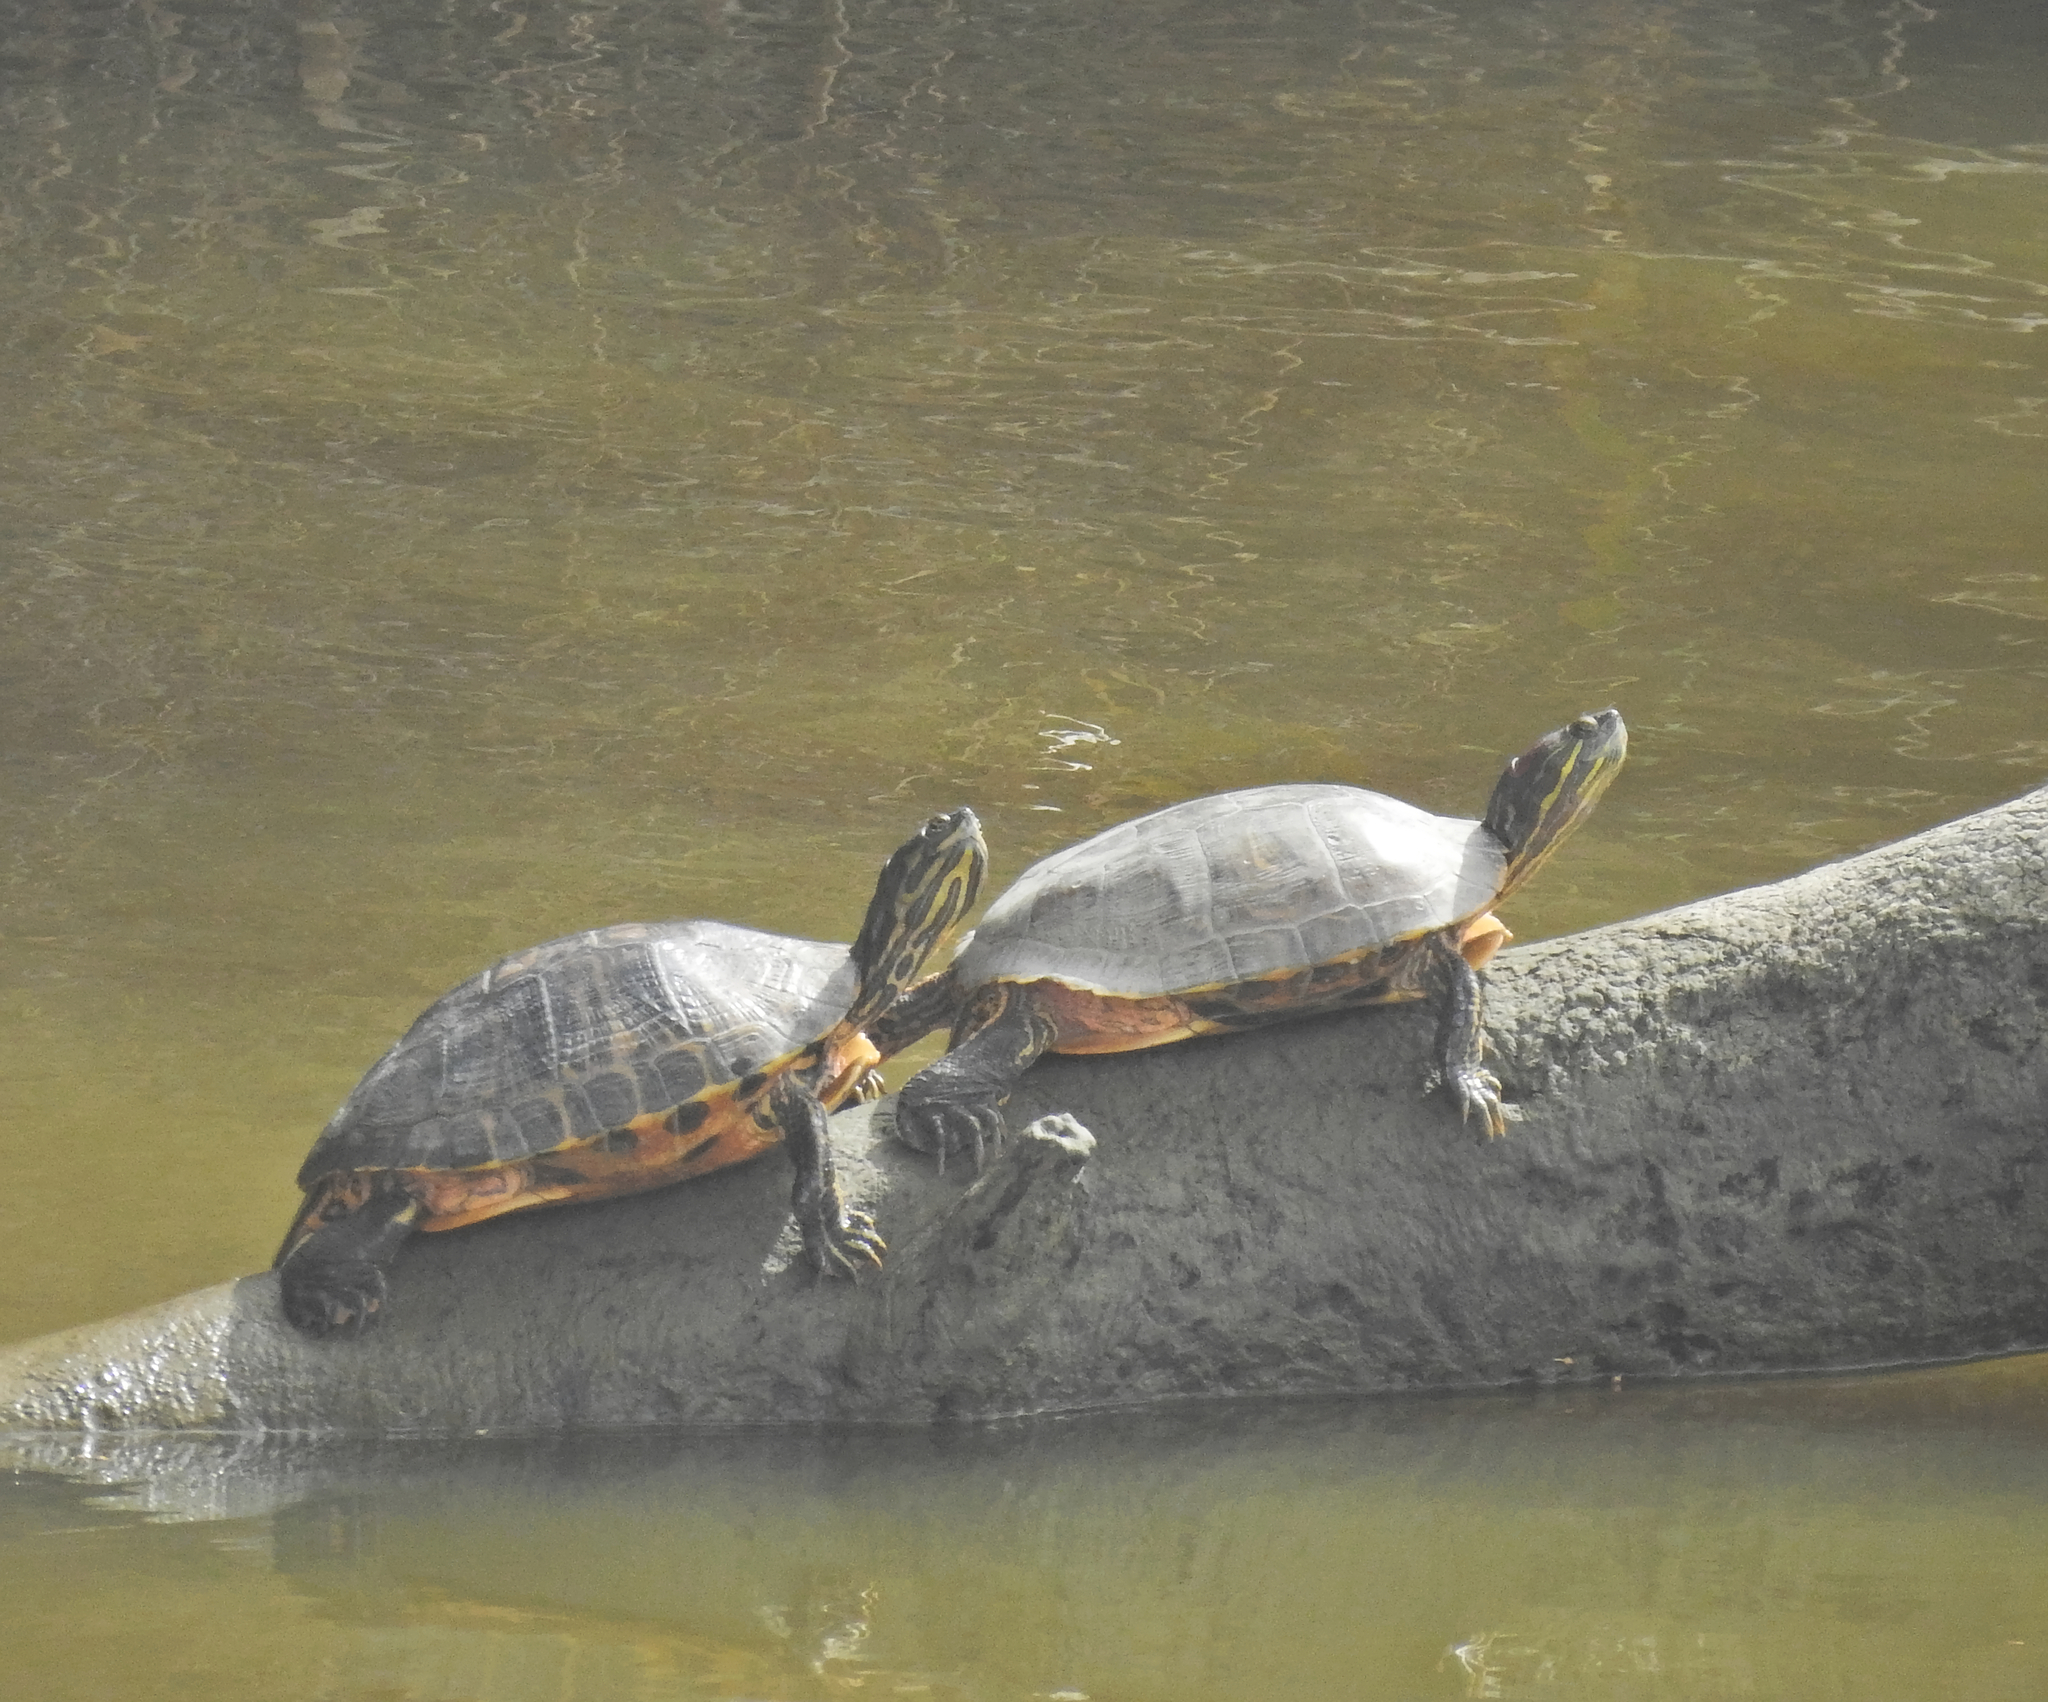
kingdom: Animalia
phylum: Chordata
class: Testudines
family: Emydidae
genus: Trachemys
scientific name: Trachemys scripta
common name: Slider
